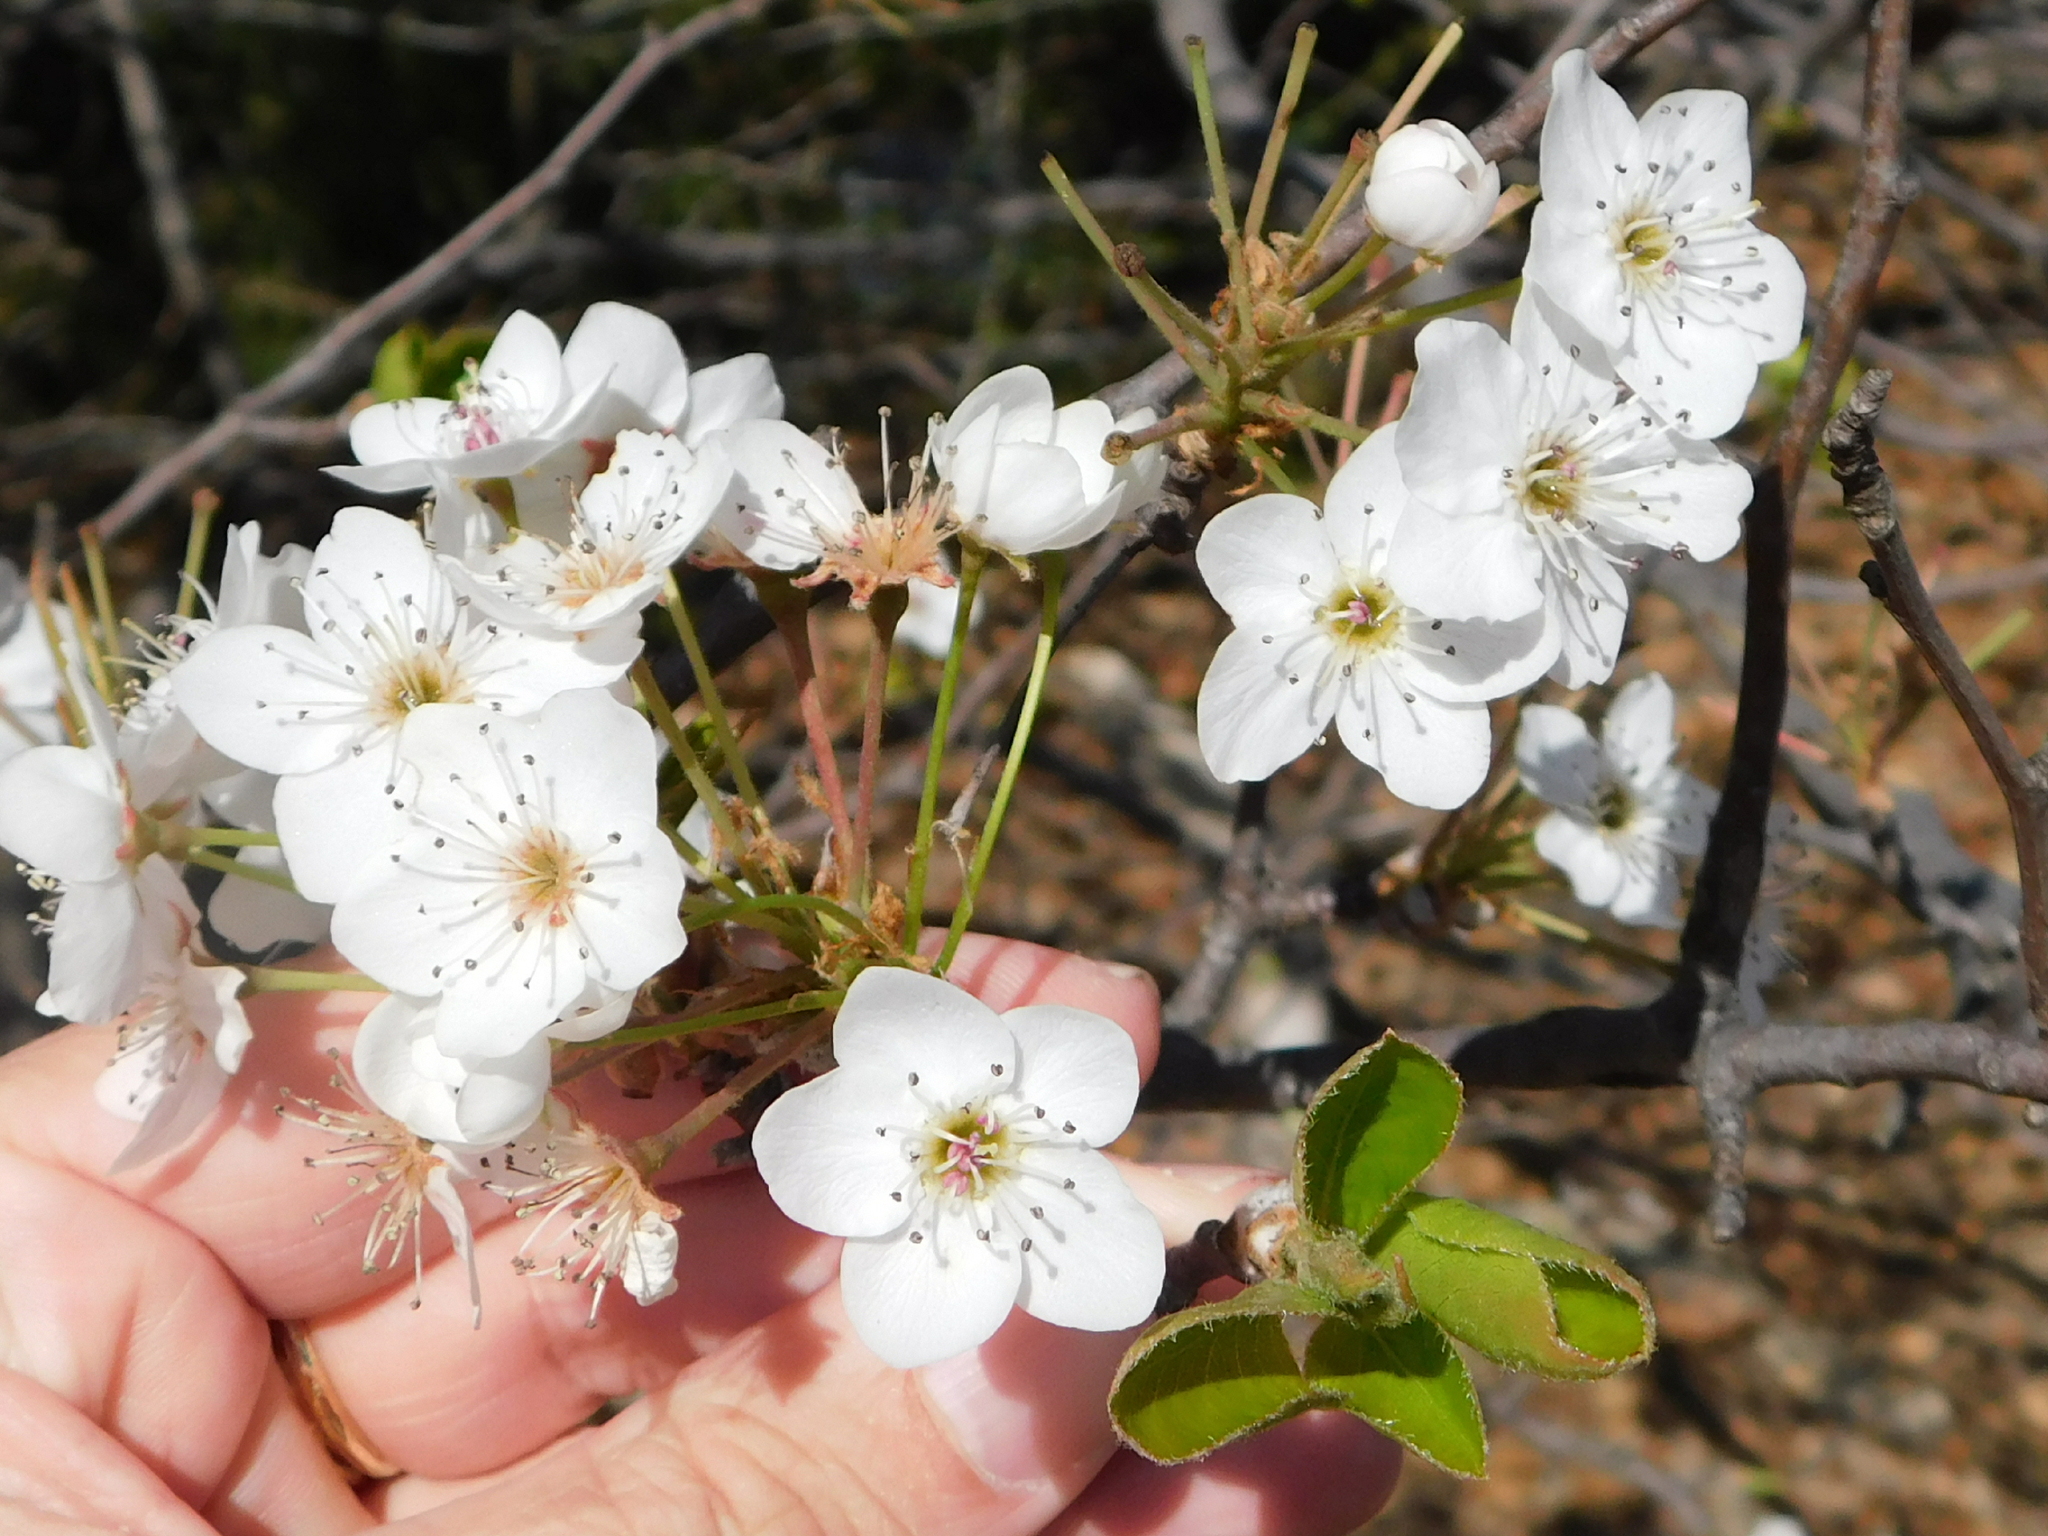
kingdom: Plantae
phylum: Tracheophyta
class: Magnoliopsida
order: Rosales
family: Rosaceae
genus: Pyrus
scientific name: Pyrus calleryana
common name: Callery pear
